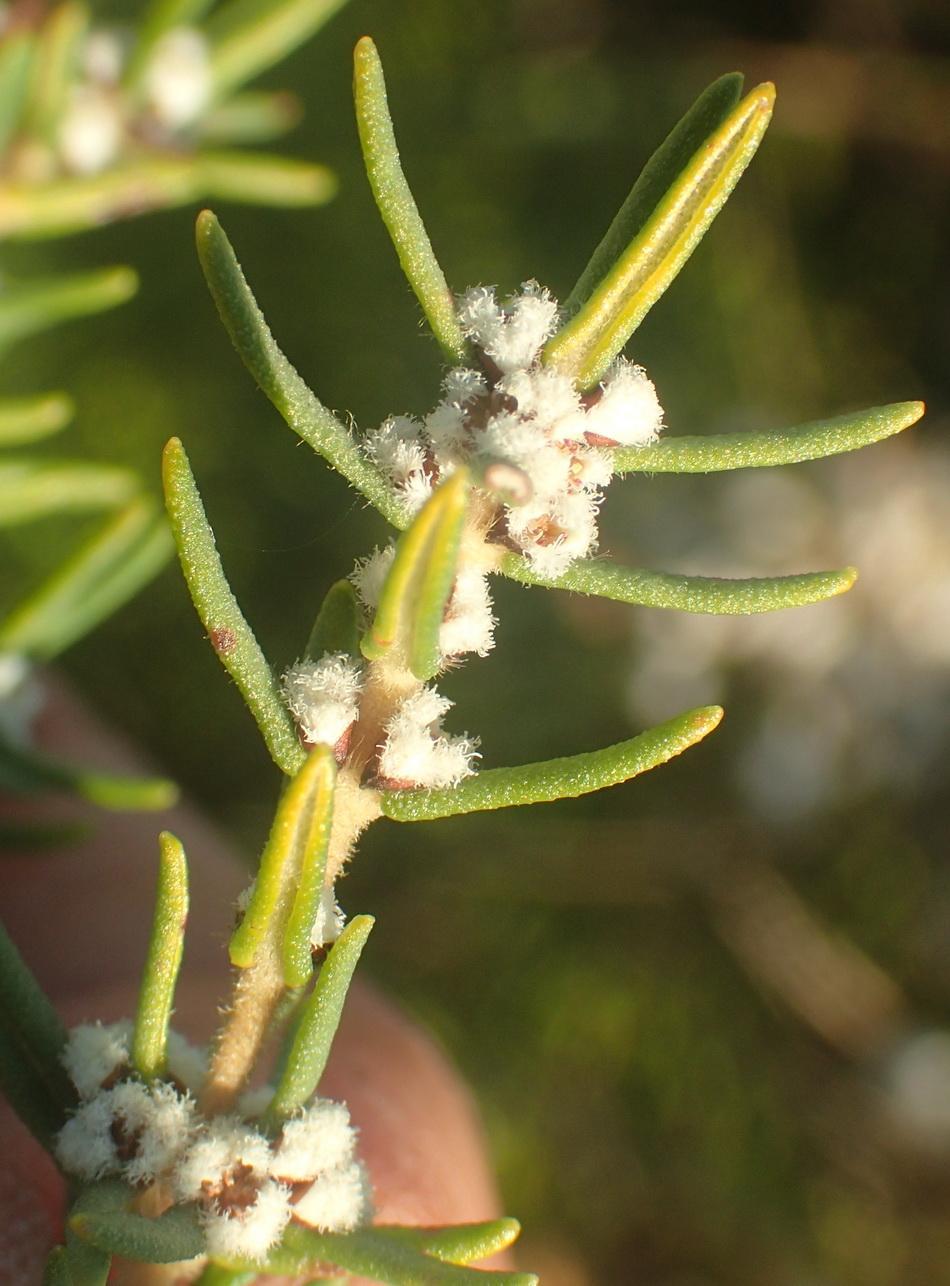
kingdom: Plantae
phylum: Tracheophyta
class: Magnoliopsida
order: Cornales
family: Grubbiaceae
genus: Grubbia
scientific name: Grubbia rosmarinifolia
